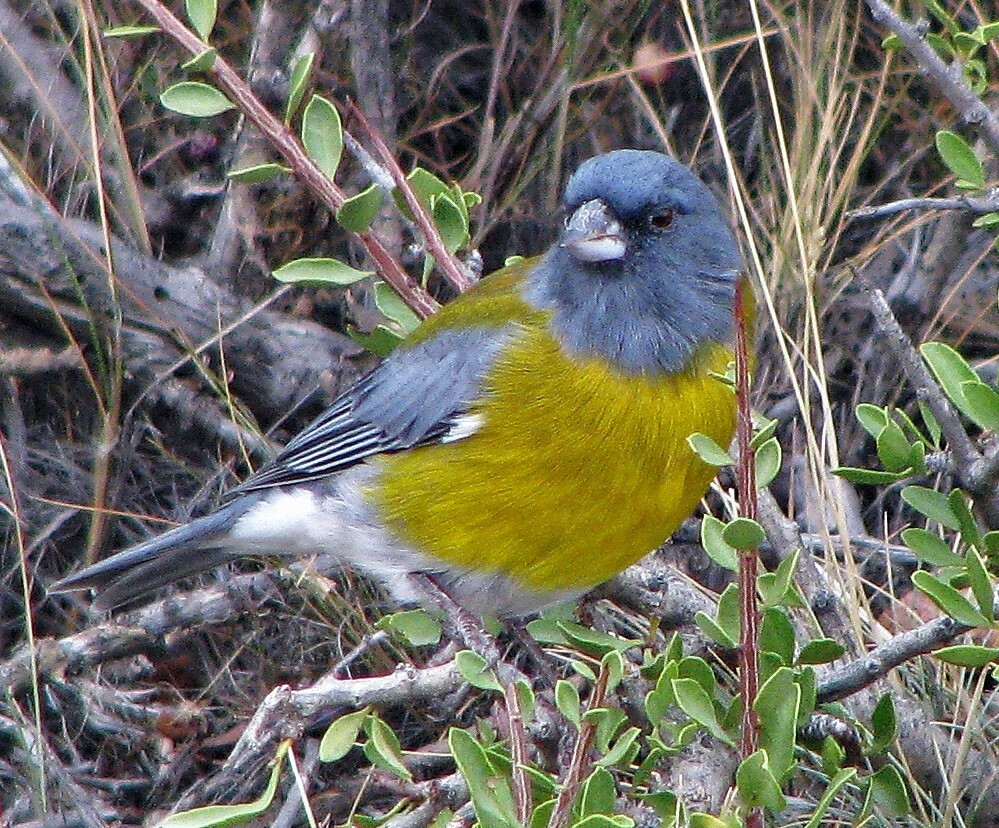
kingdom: Animalia
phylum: Chordata
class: Aves
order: Passeriformes
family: Thraupidae
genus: Phrygilus
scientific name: Phrygilus gayi
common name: Grey-hooded sierra finch
